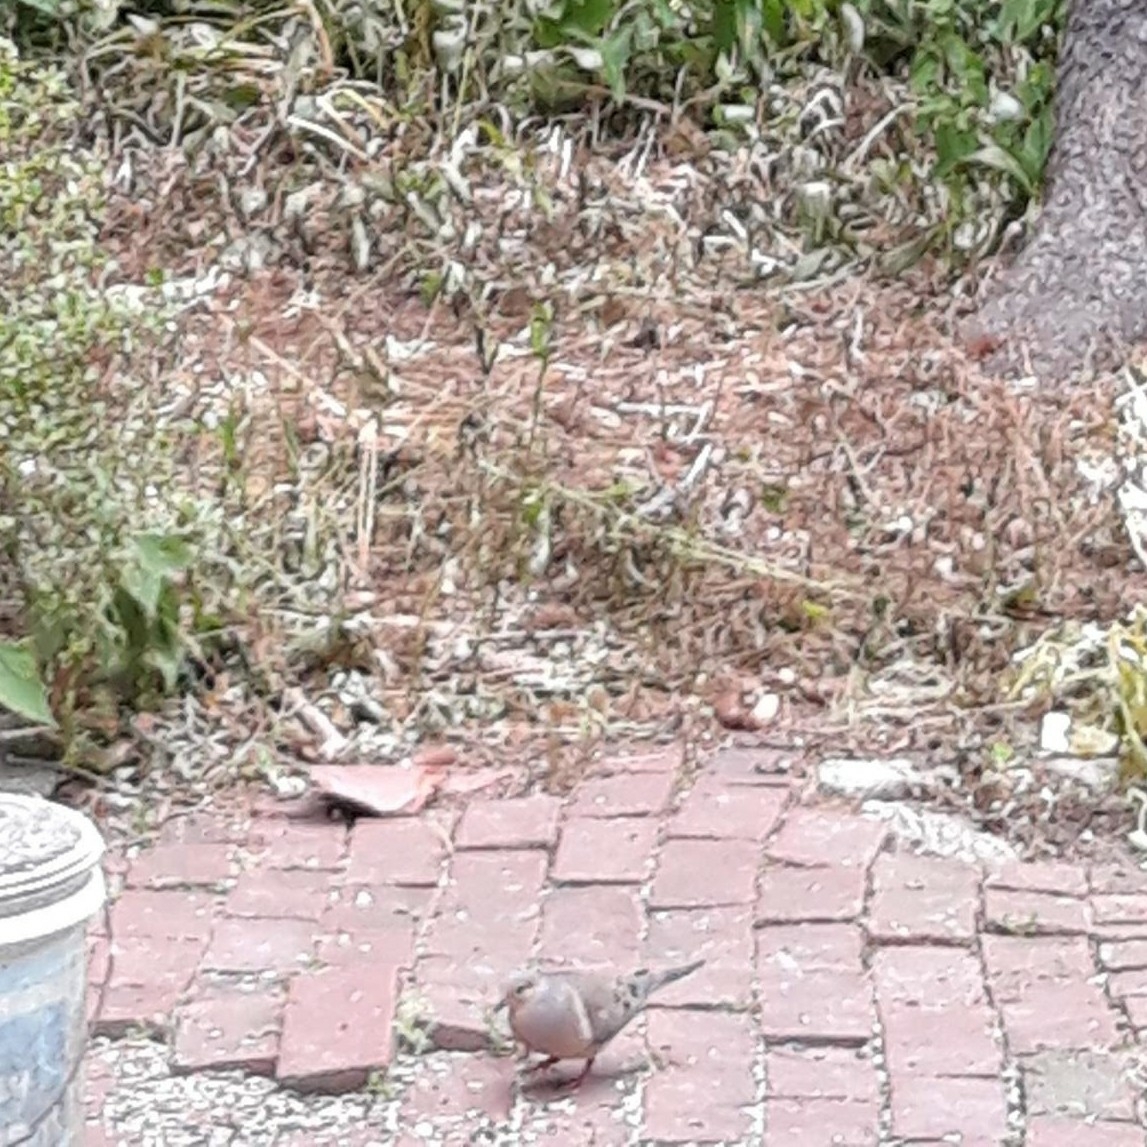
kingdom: Animalia
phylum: Chordata
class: Aves
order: Columbiformes
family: Columbidae
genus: Zenaida
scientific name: Zenaida macroura
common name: Mourning dove
